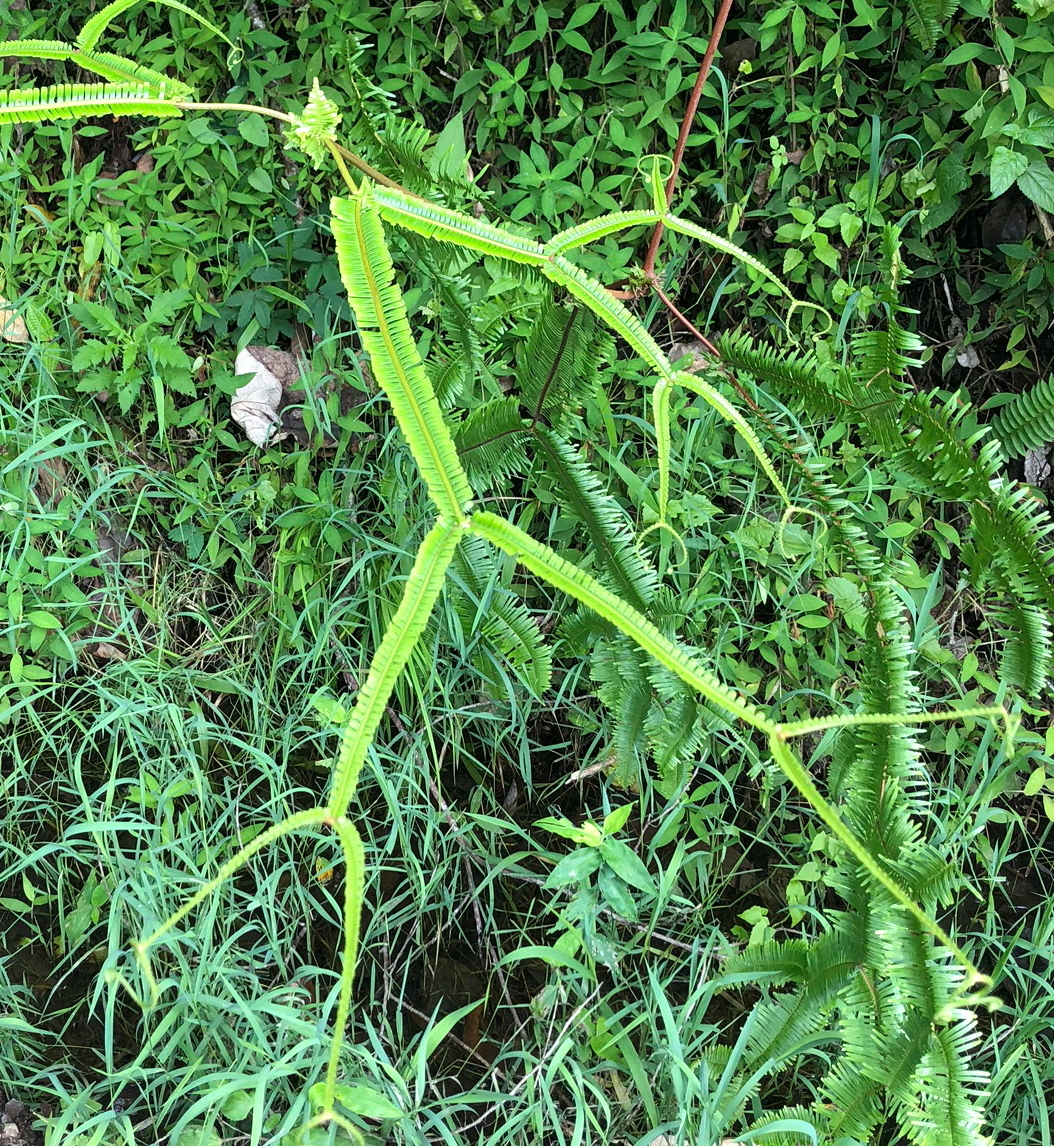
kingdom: Plantae
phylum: Tracheophyta
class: Polypodiopsida
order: Gleicheniales
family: Gleicheniaceae
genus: Sticherus
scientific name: Sticherus truncatus
